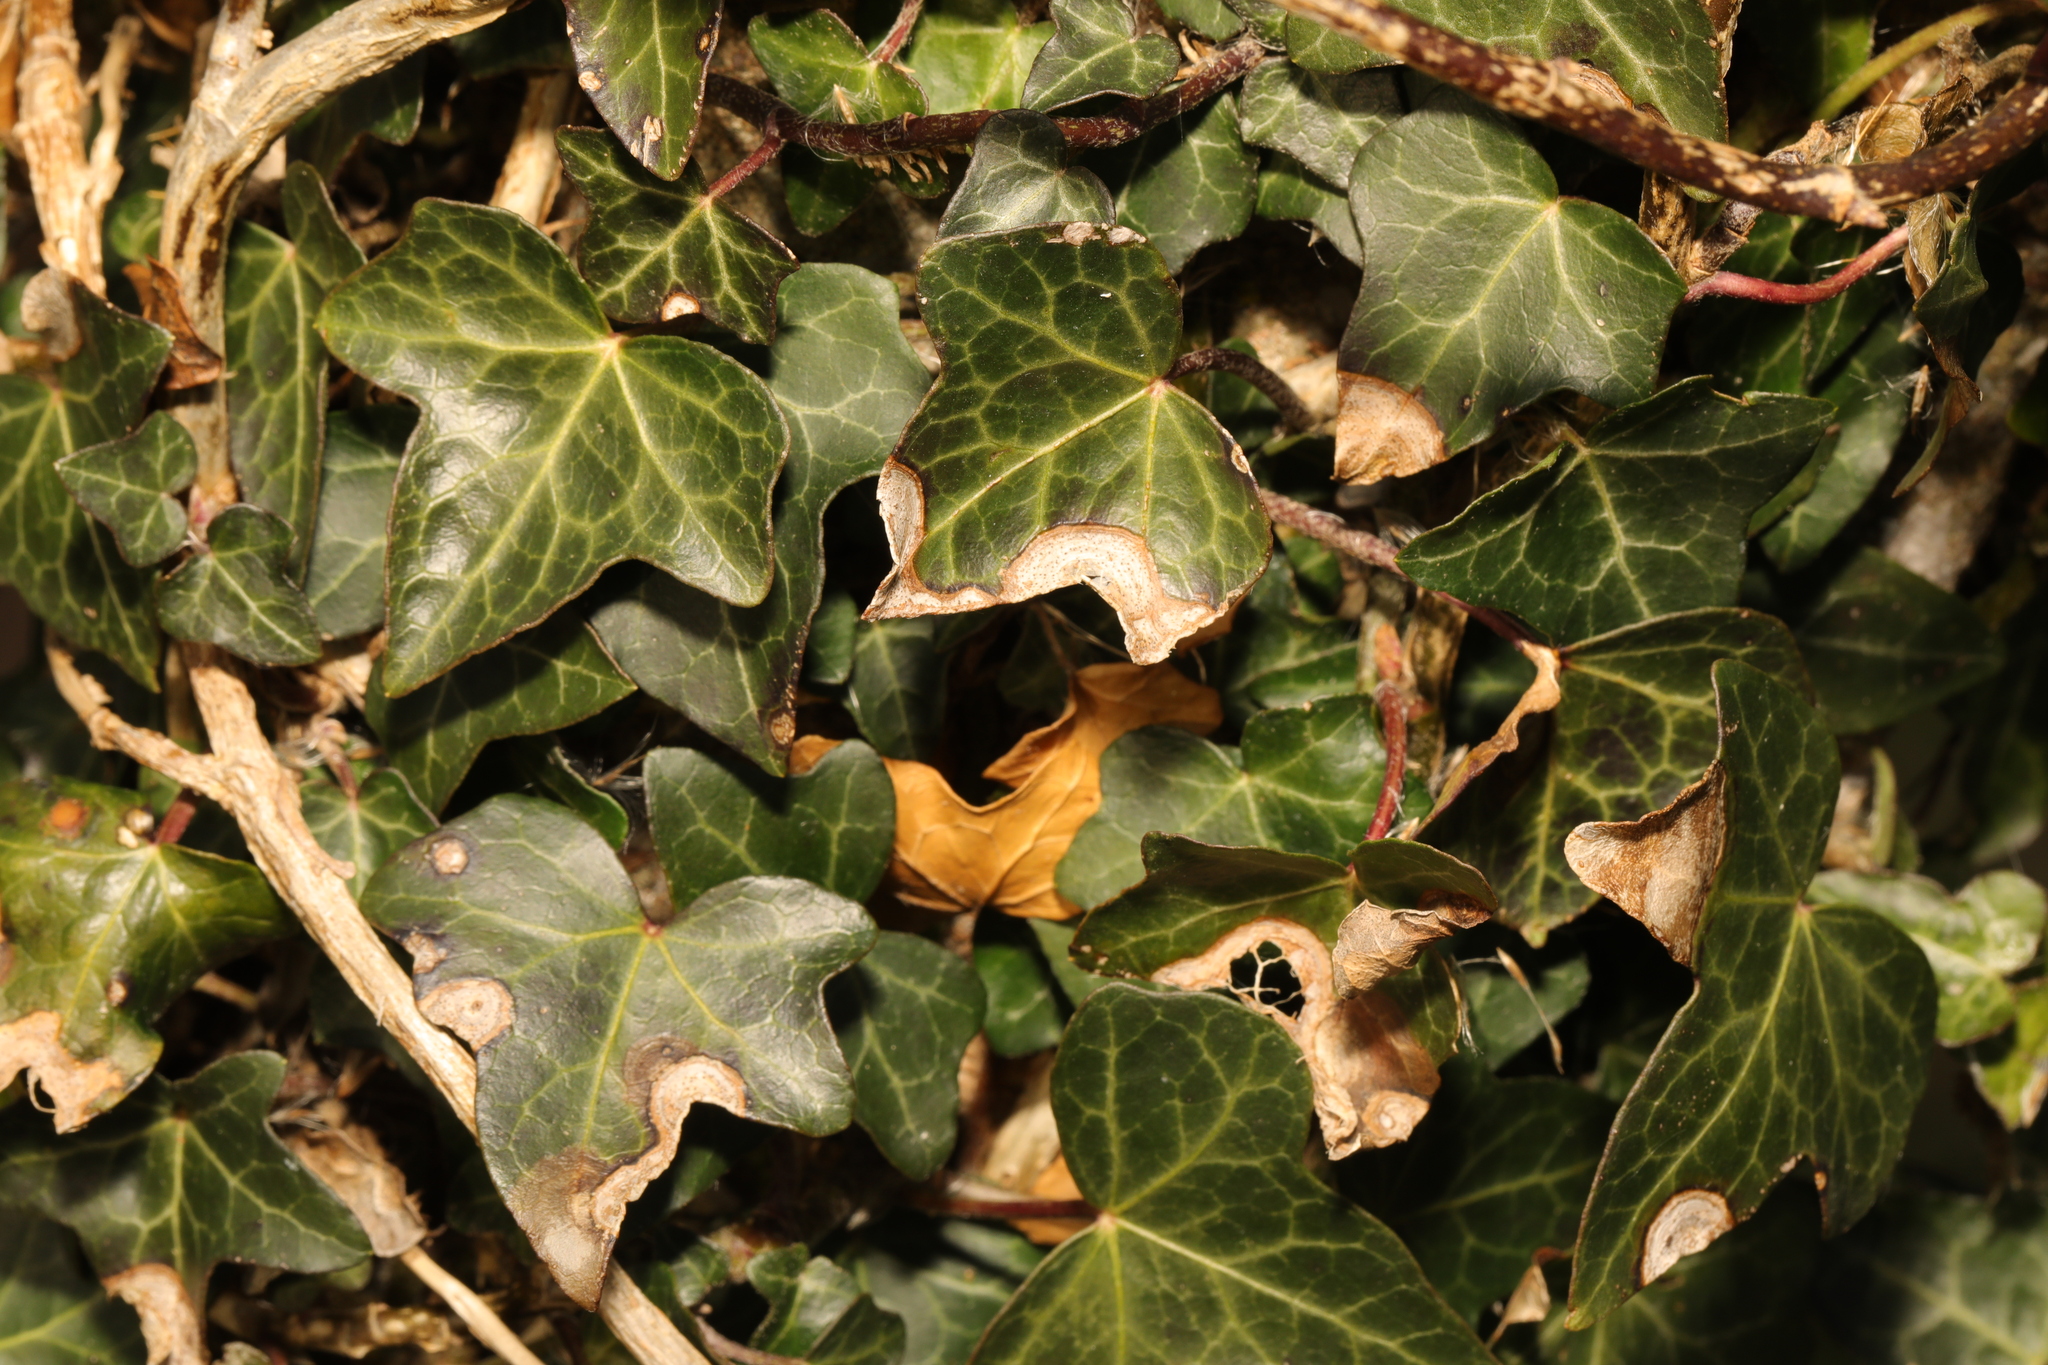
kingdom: Plantae
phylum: Tracheophyta
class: Magnoliopsida
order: Apiales
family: Araliaceae
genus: Hedera
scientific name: Hedera helix
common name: Ivy
